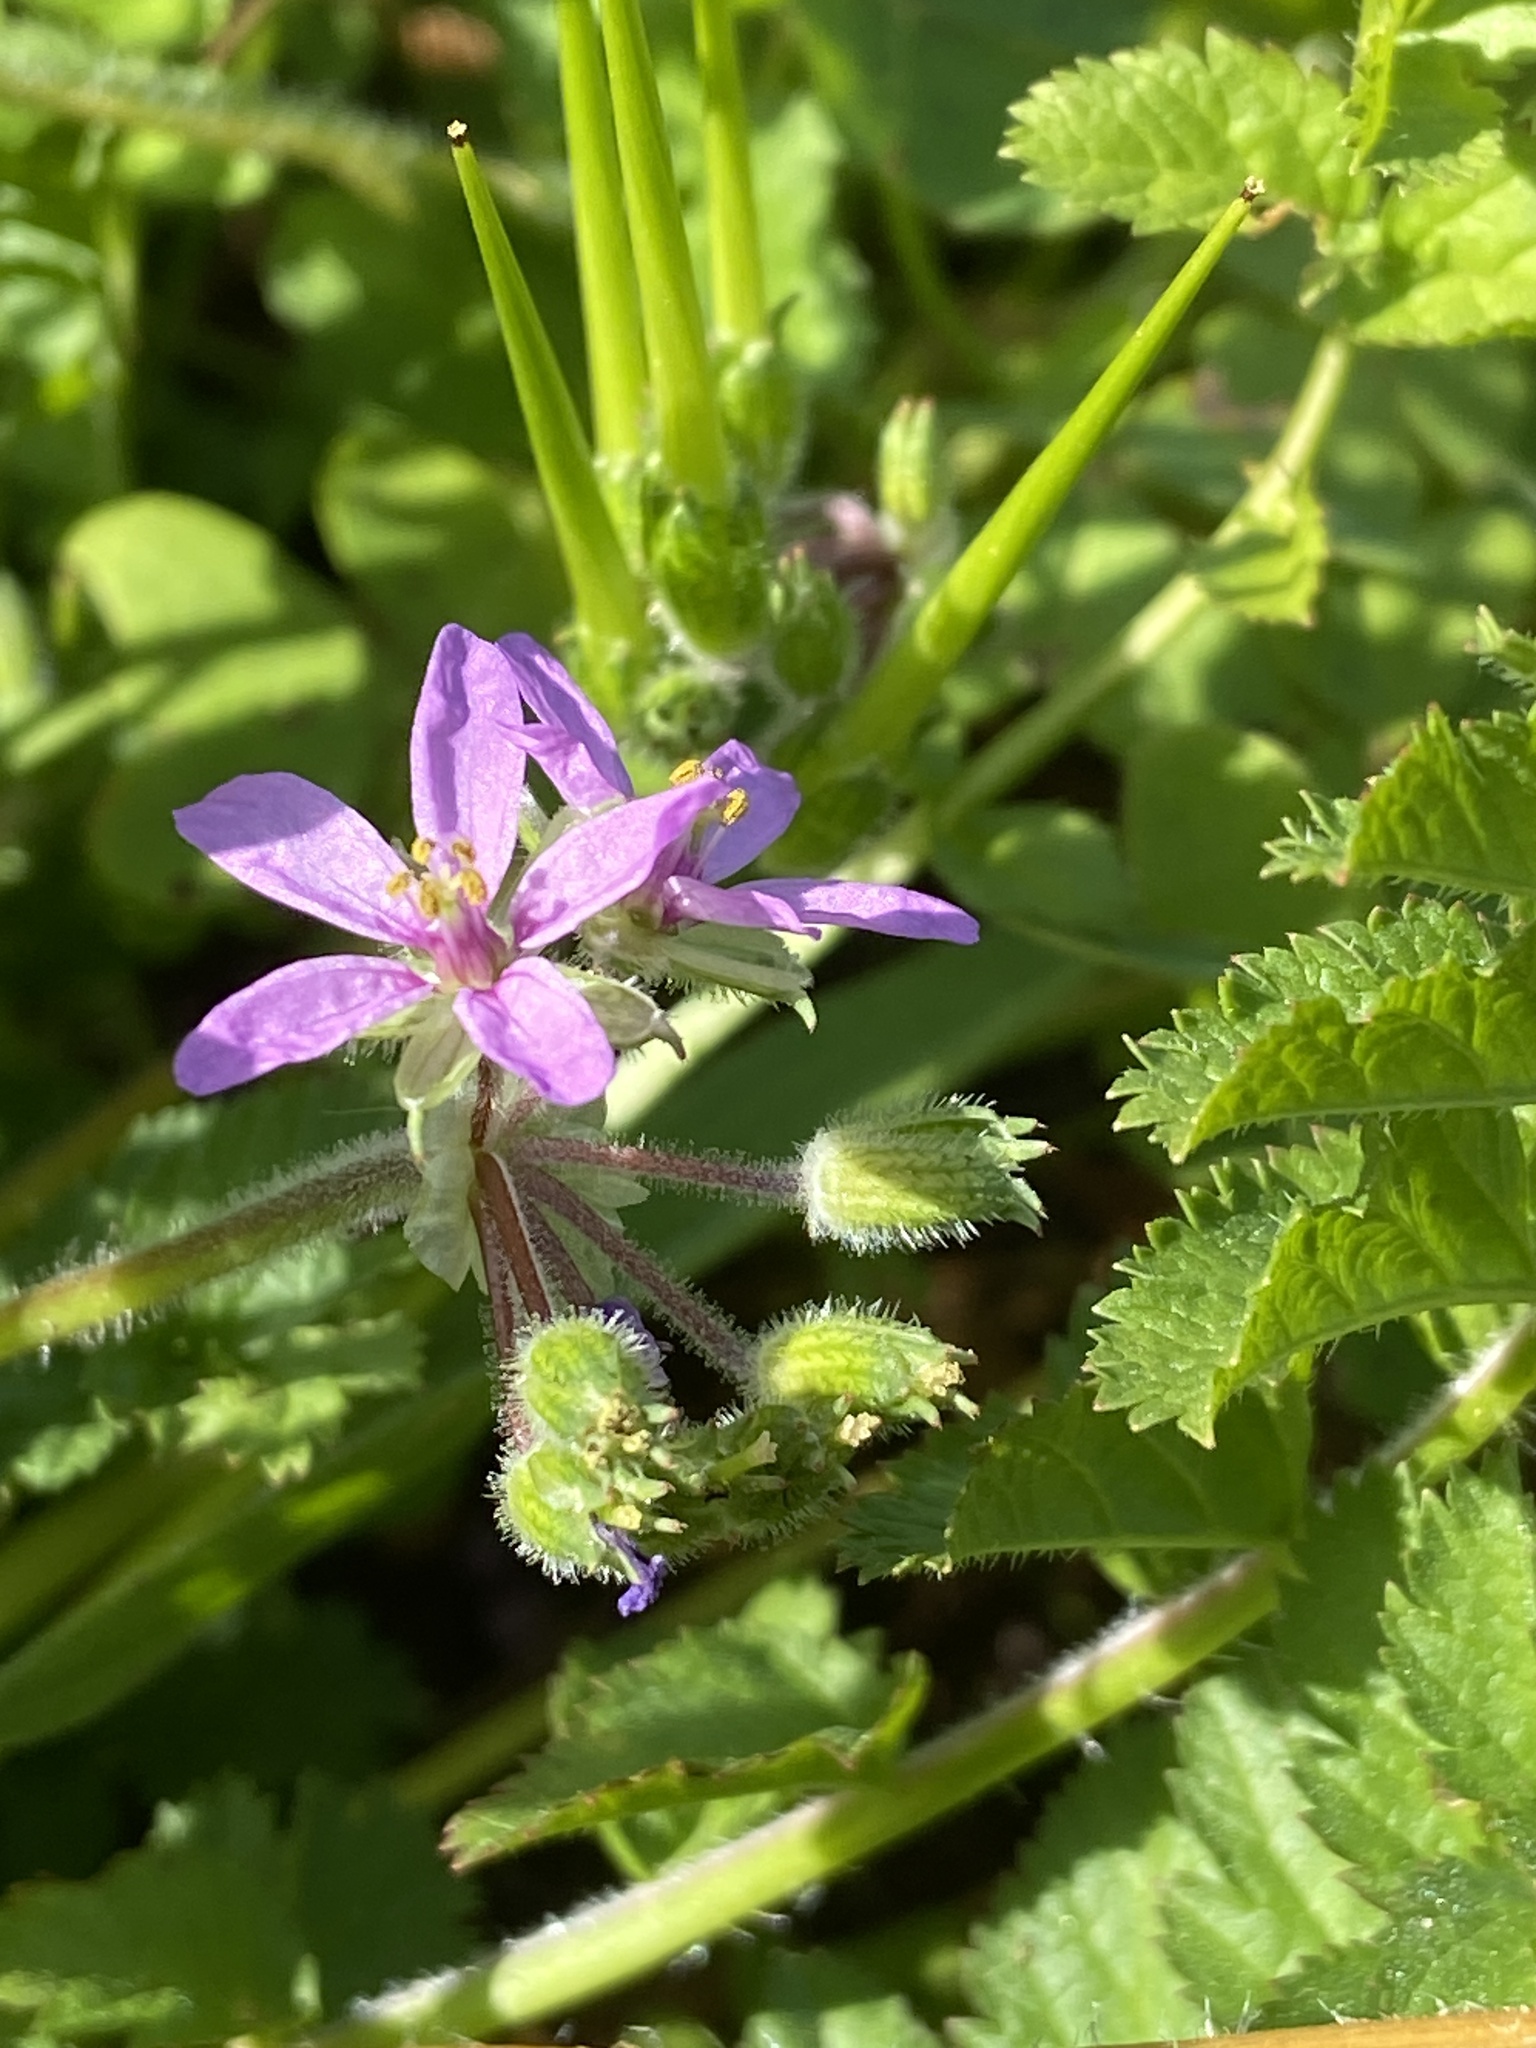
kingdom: Plantae
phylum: Tracheophyta
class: Magnoliopsida
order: Geraniales
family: Geraniaceae
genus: Erodium
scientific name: Erodium moschatum
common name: Musk stork's-bill
